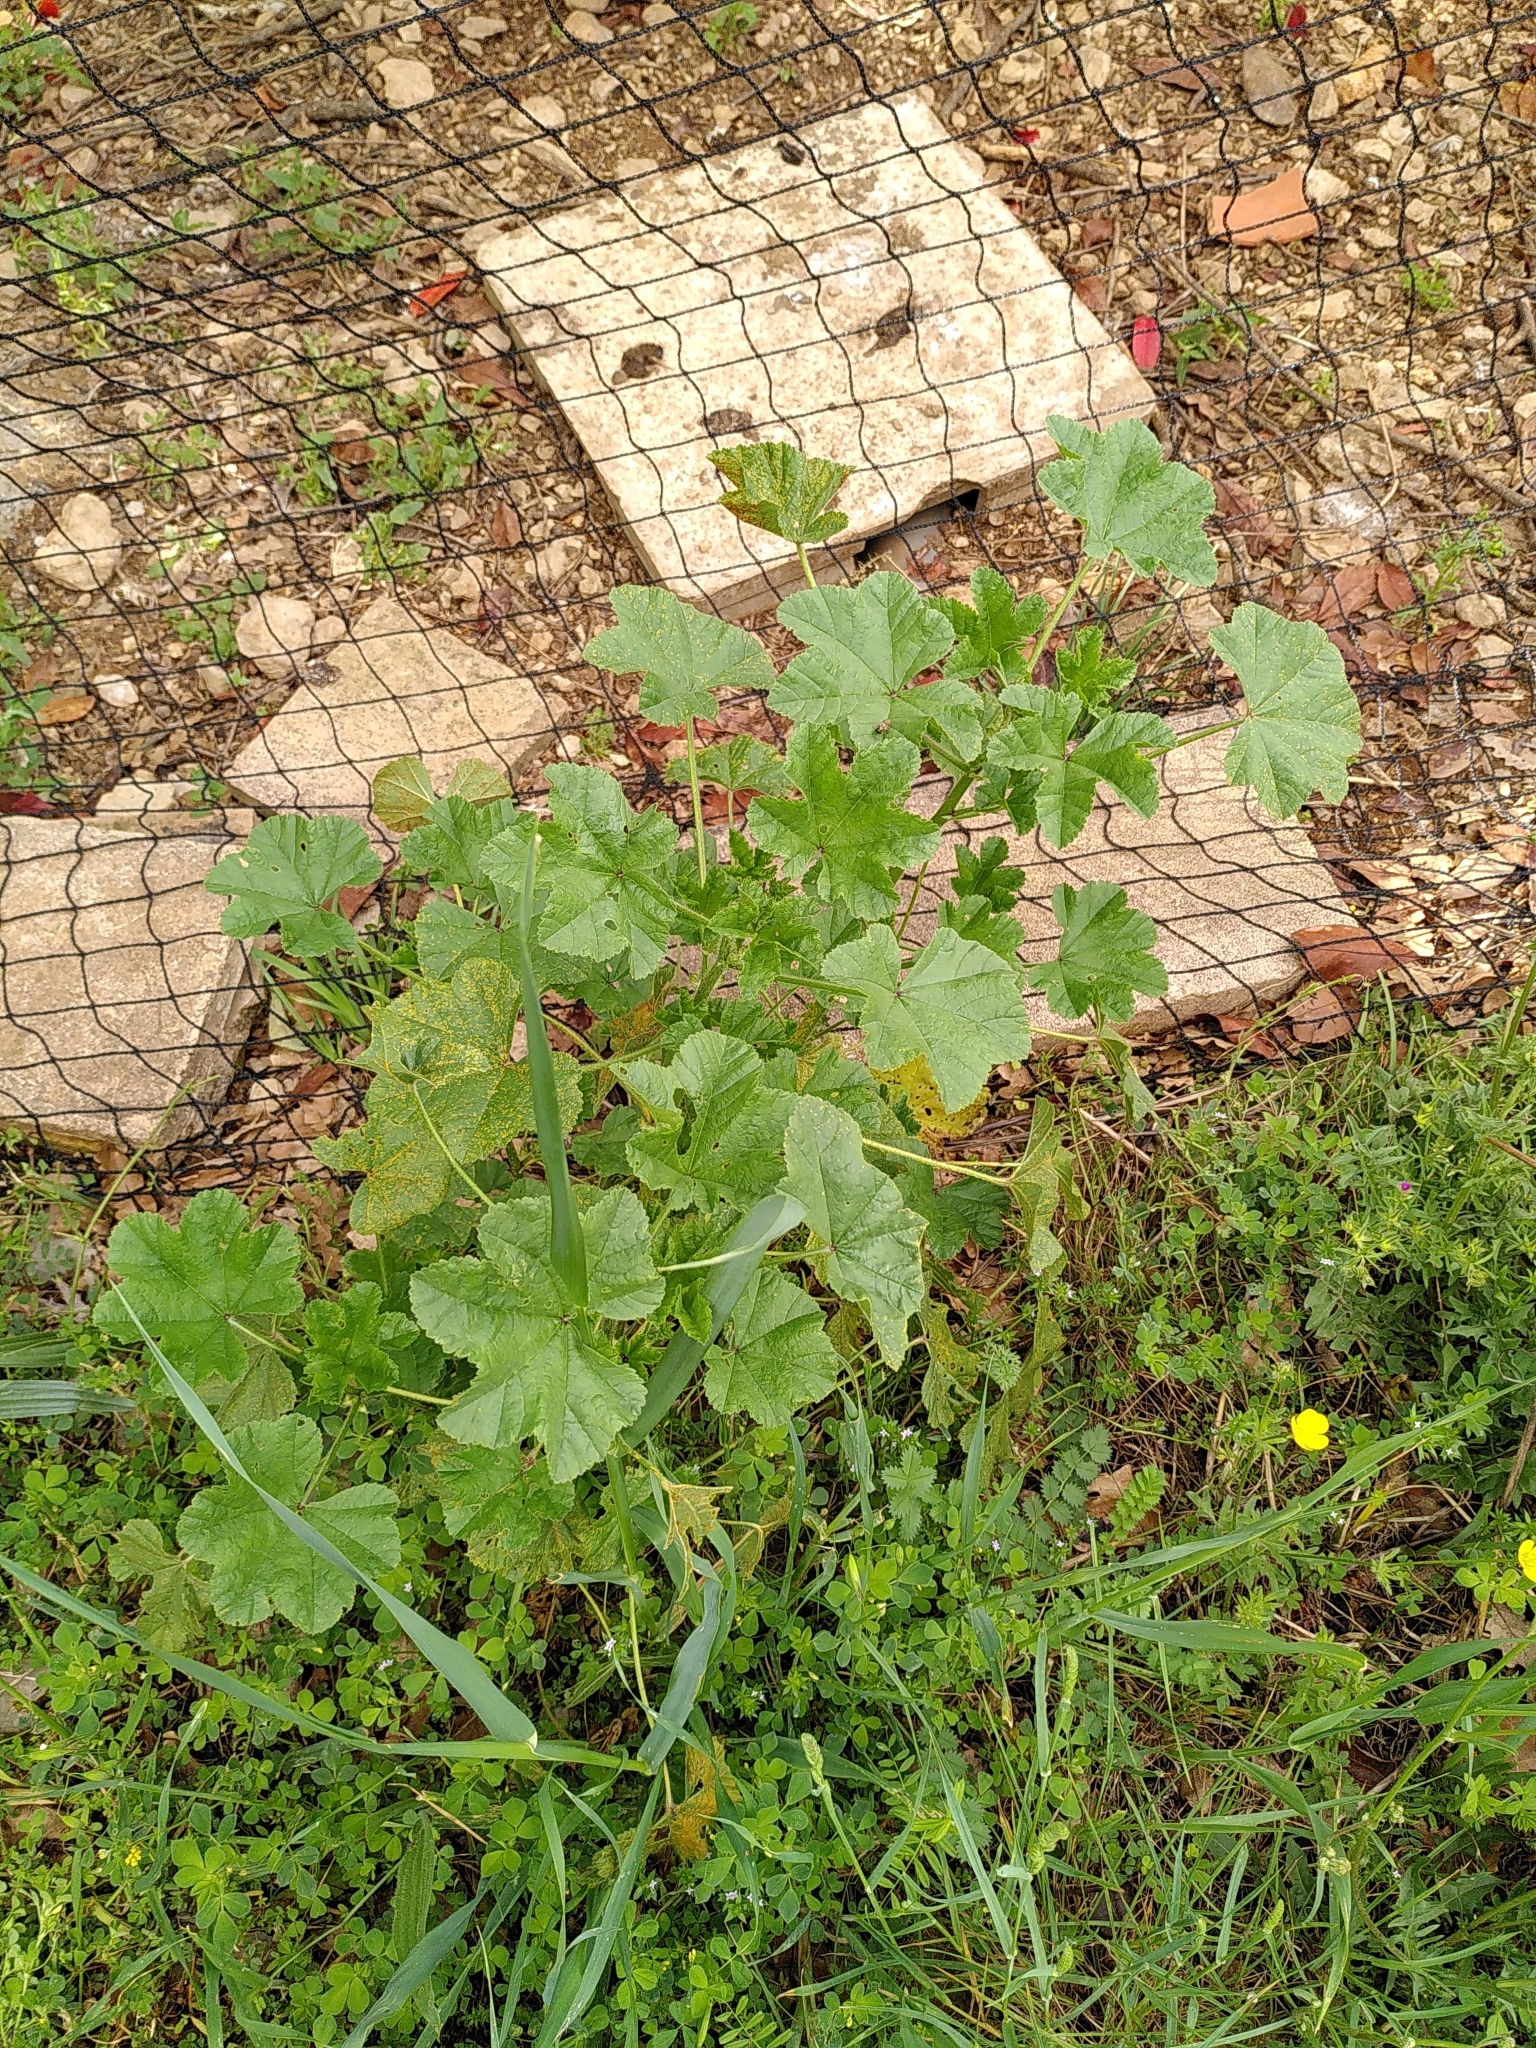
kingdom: Plantae
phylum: Tracheophyta
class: Magnoliopsida
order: Malvales
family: Malvaceae
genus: Malva
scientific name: Malva sylvestris
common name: Common mallow
